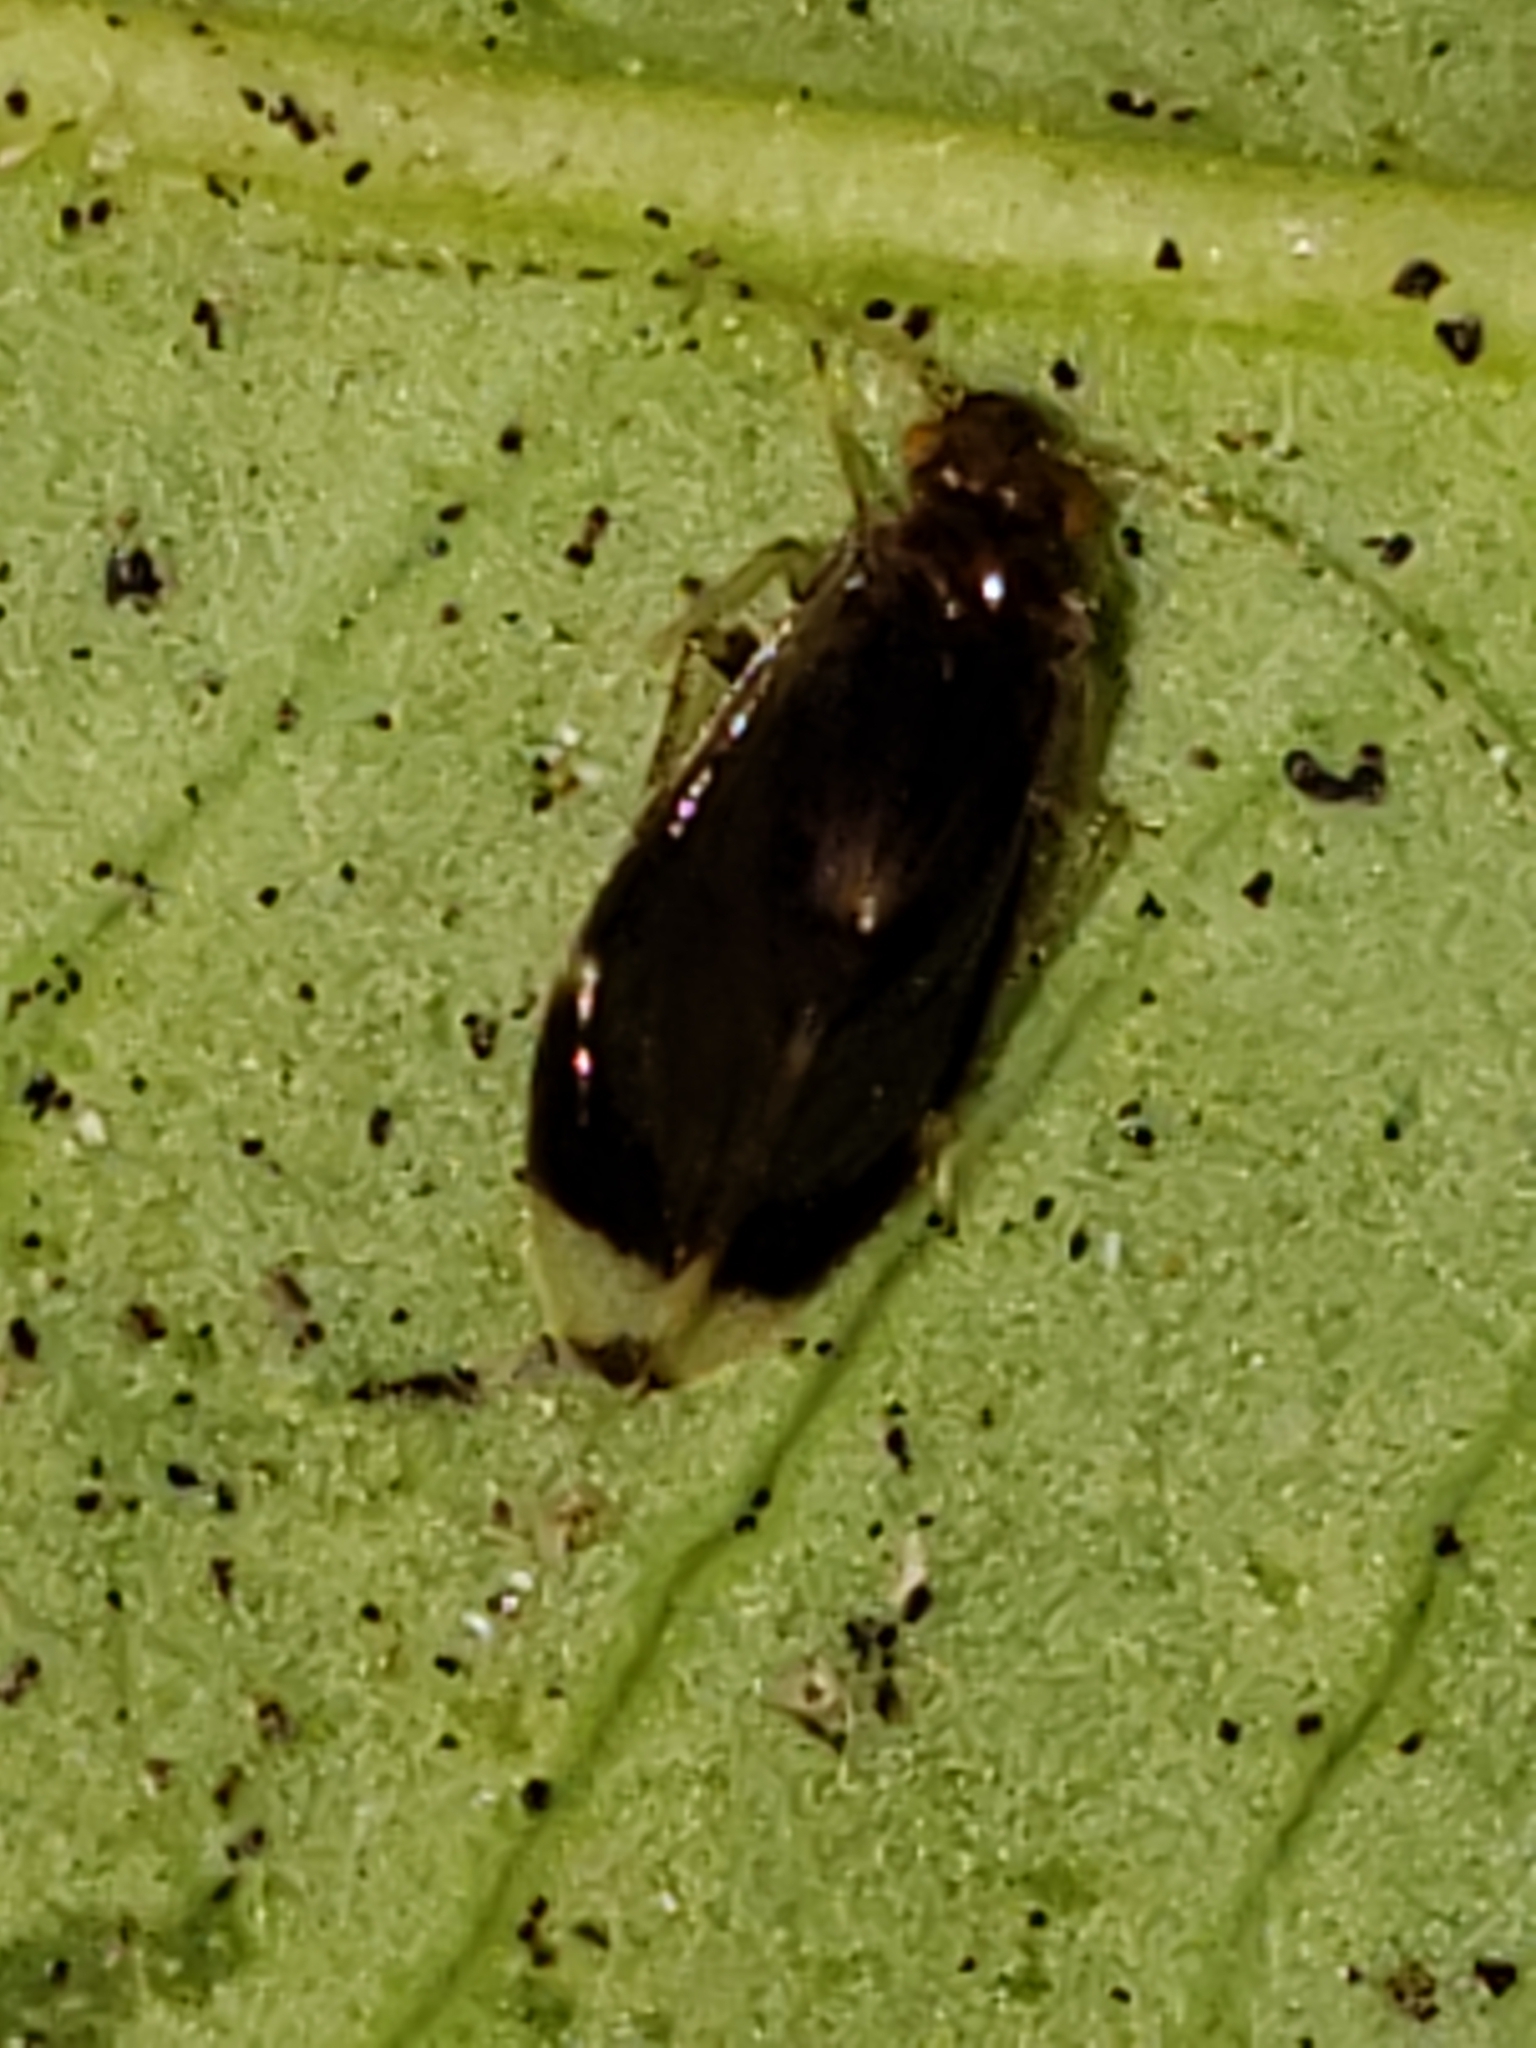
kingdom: Animalia
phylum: Arthropoda
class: Insecta
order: Psocodea
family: Amphipsocidae
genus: Polypsocus
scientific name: Polypsocus corruptus
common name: Corrupt barklouse
